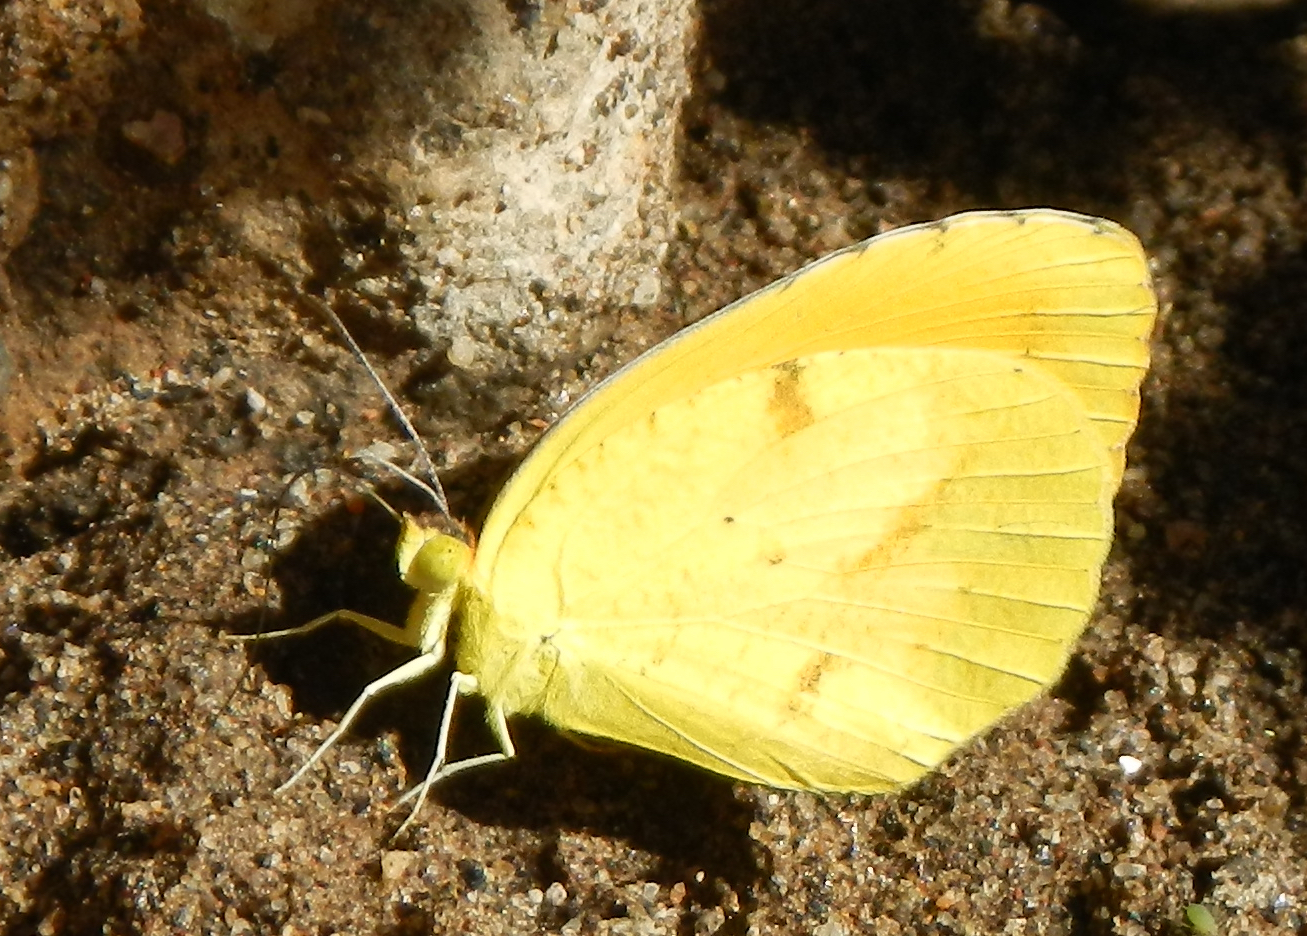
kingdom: Animalia
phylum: Arthropoda
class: Insecta
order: Lepidoptera
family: Pieridae
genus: Abaeis
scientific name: Abaeis nicippe
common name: Sleepy orange
